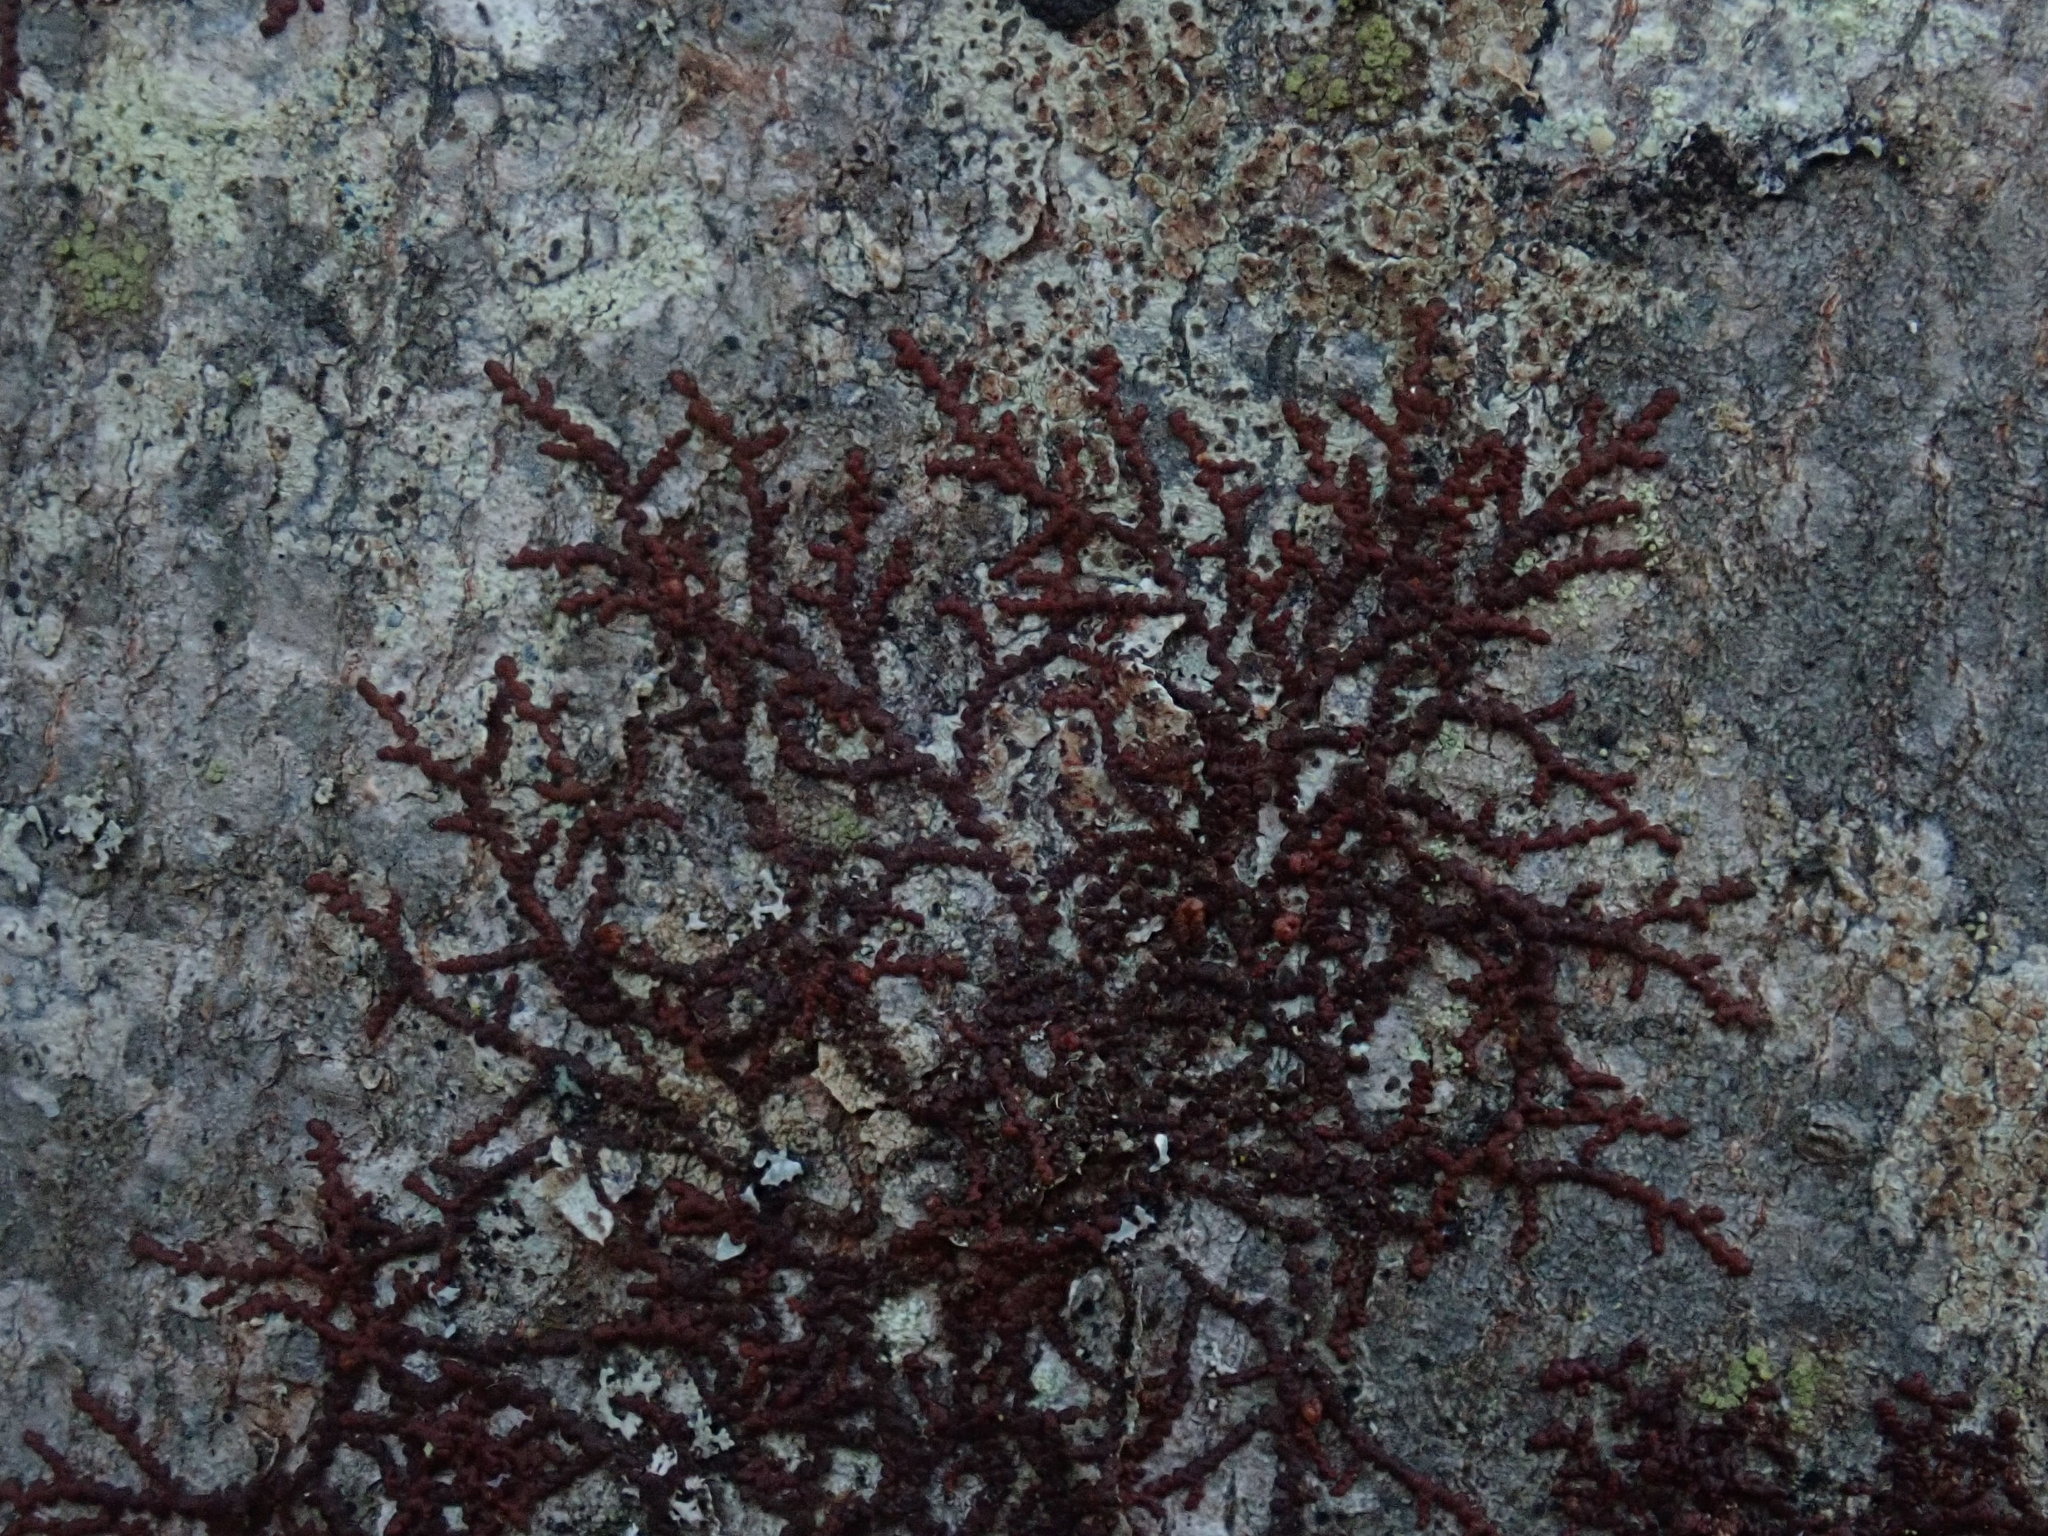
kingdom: Plantae
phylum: Marchantiophyta
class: Jungermanniopsida
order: Porellales
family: Frullaniaceae
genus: Frullania
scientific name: Frullania
